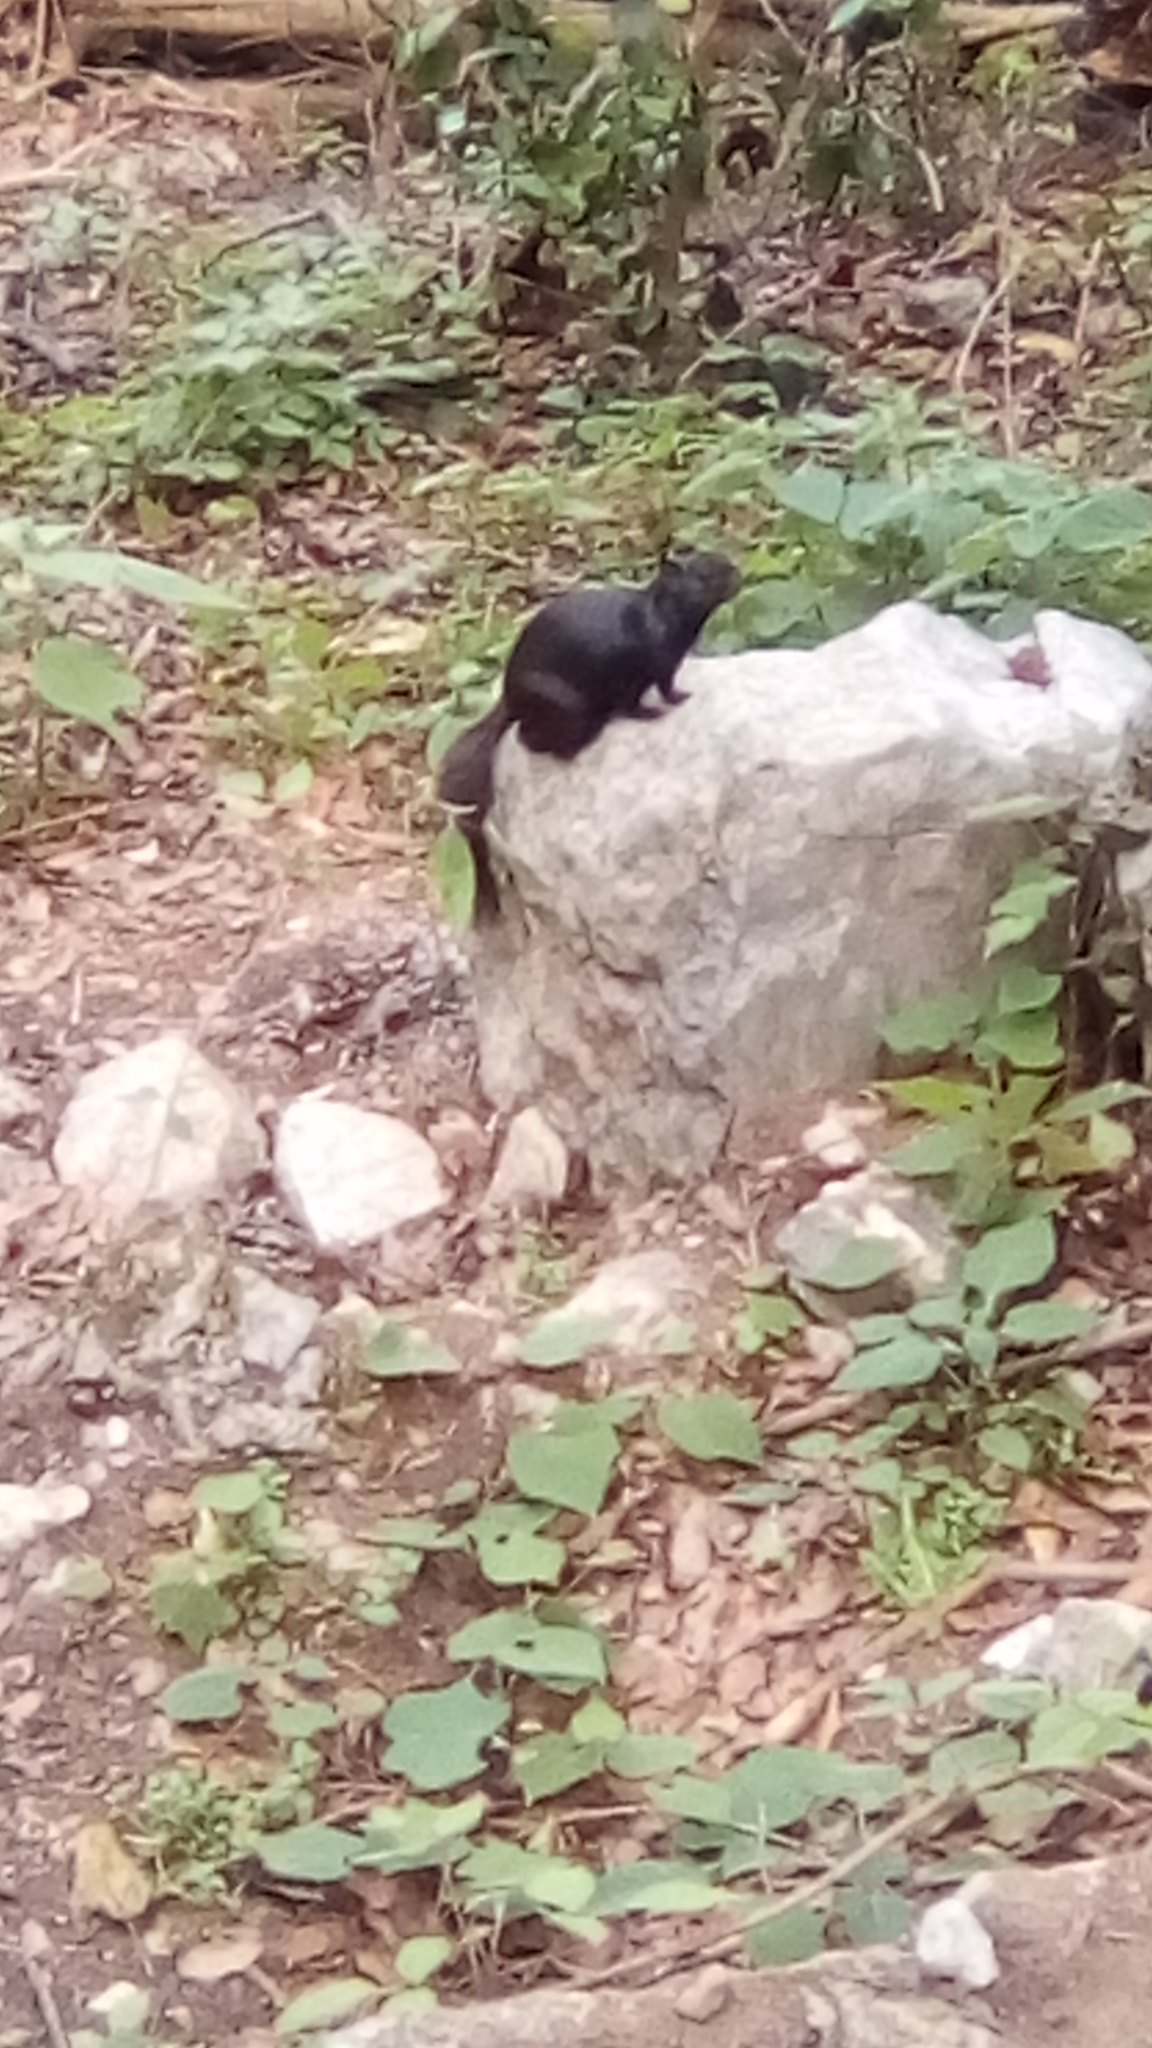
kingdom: Animalia
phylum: Chordata
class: Mammalia
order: Rodentia
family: Sciuridae
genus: Otospermophilus
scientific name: Otospermophilus variegatus
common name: Rock squirrel
